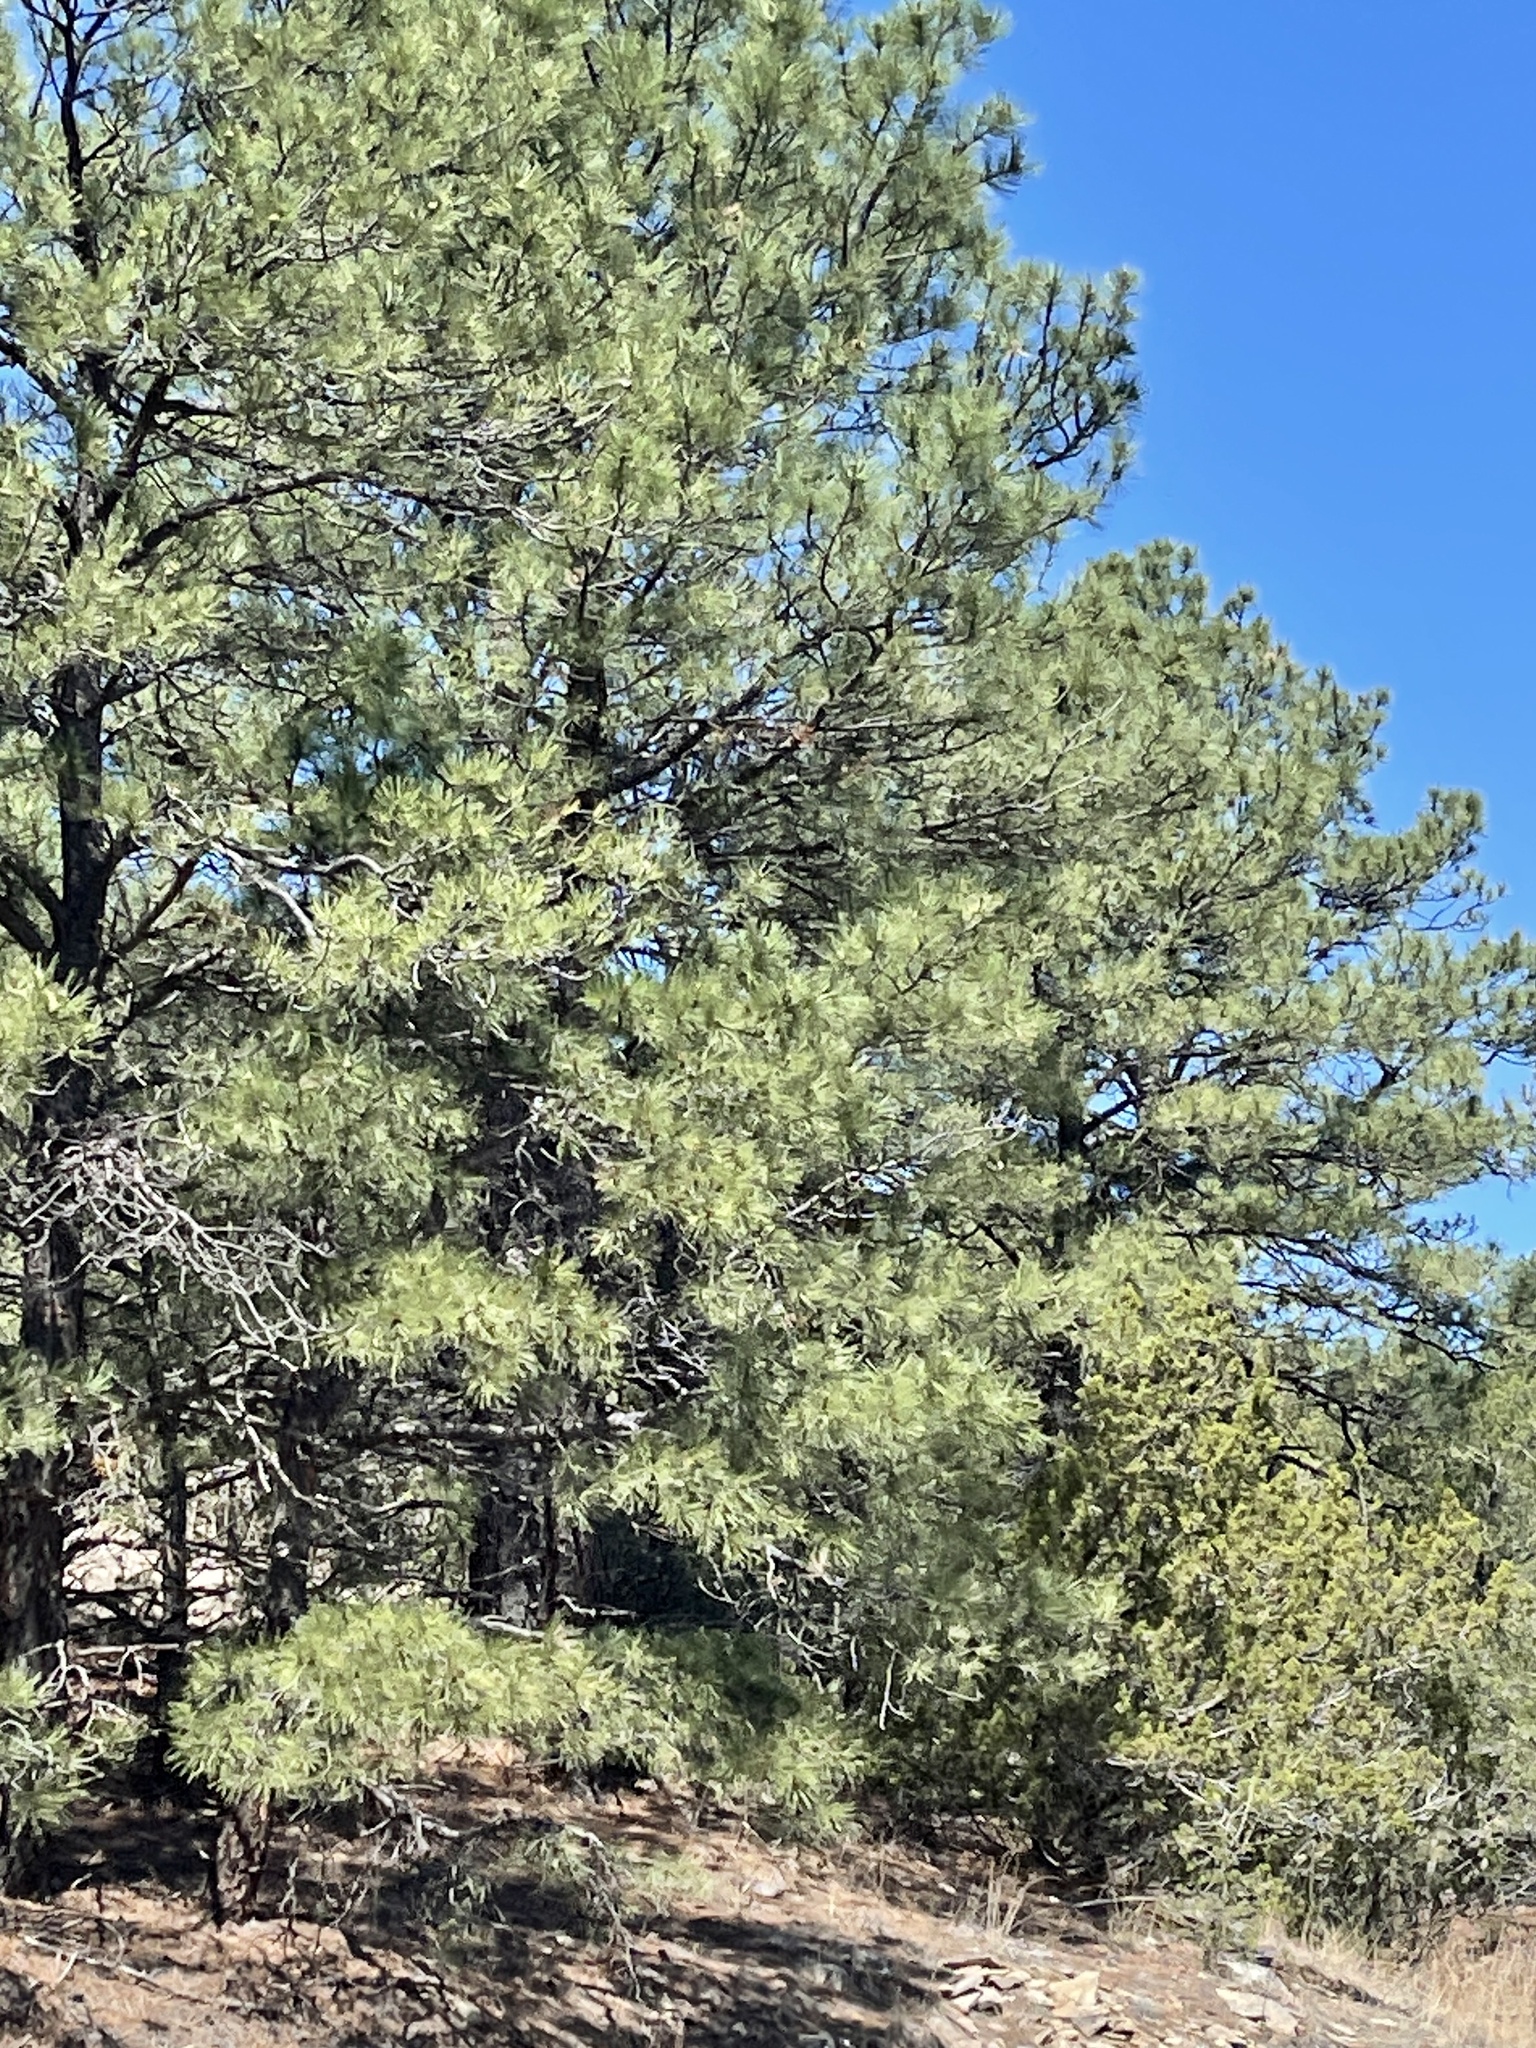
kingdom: Plantae
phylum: Tracheophyta
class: Pinopsida
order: Pinales
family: Pinaceae
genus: Pinus
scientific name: Pinus ponderosa
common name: Western yellow-pine
